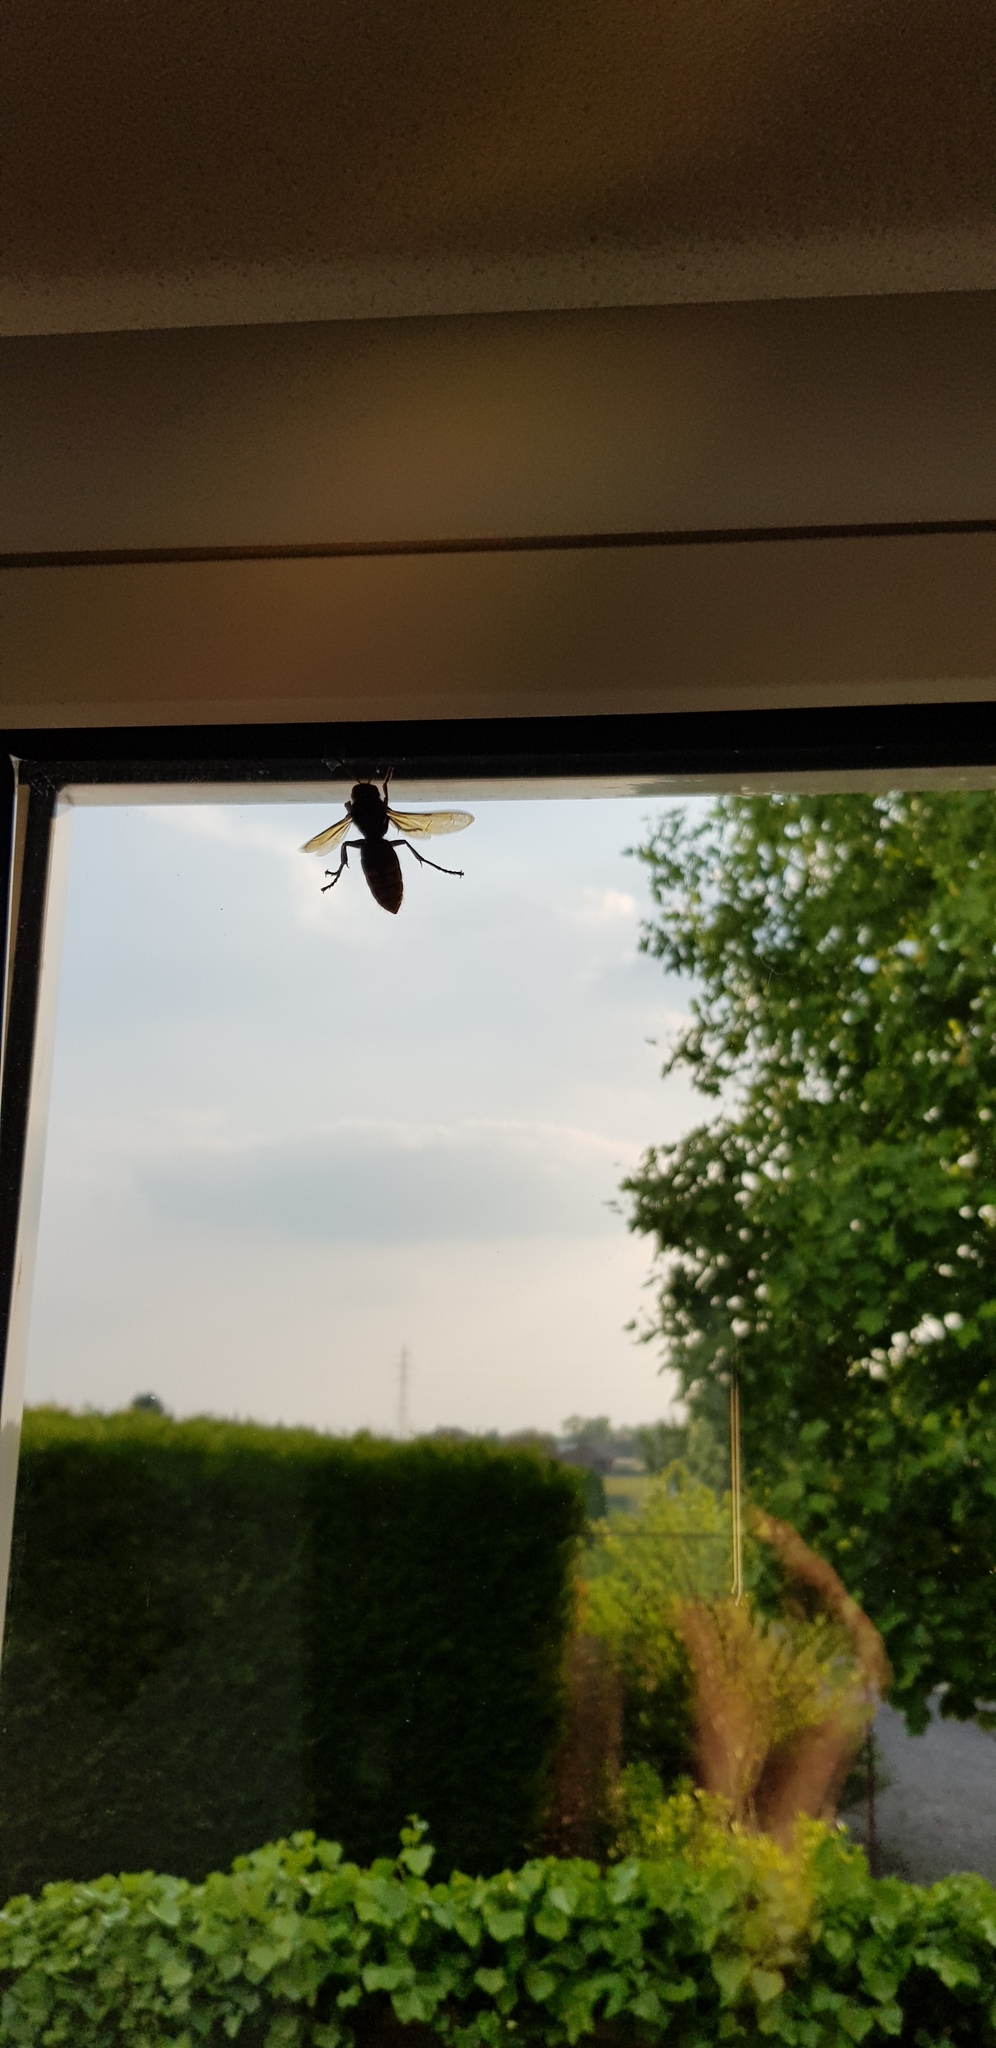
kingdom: Animalia
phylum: Arthropoda
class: Insecta
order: Hymenoptera
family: Vespidae
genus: Vespa
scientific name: Vespa crabro
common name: Hornet
